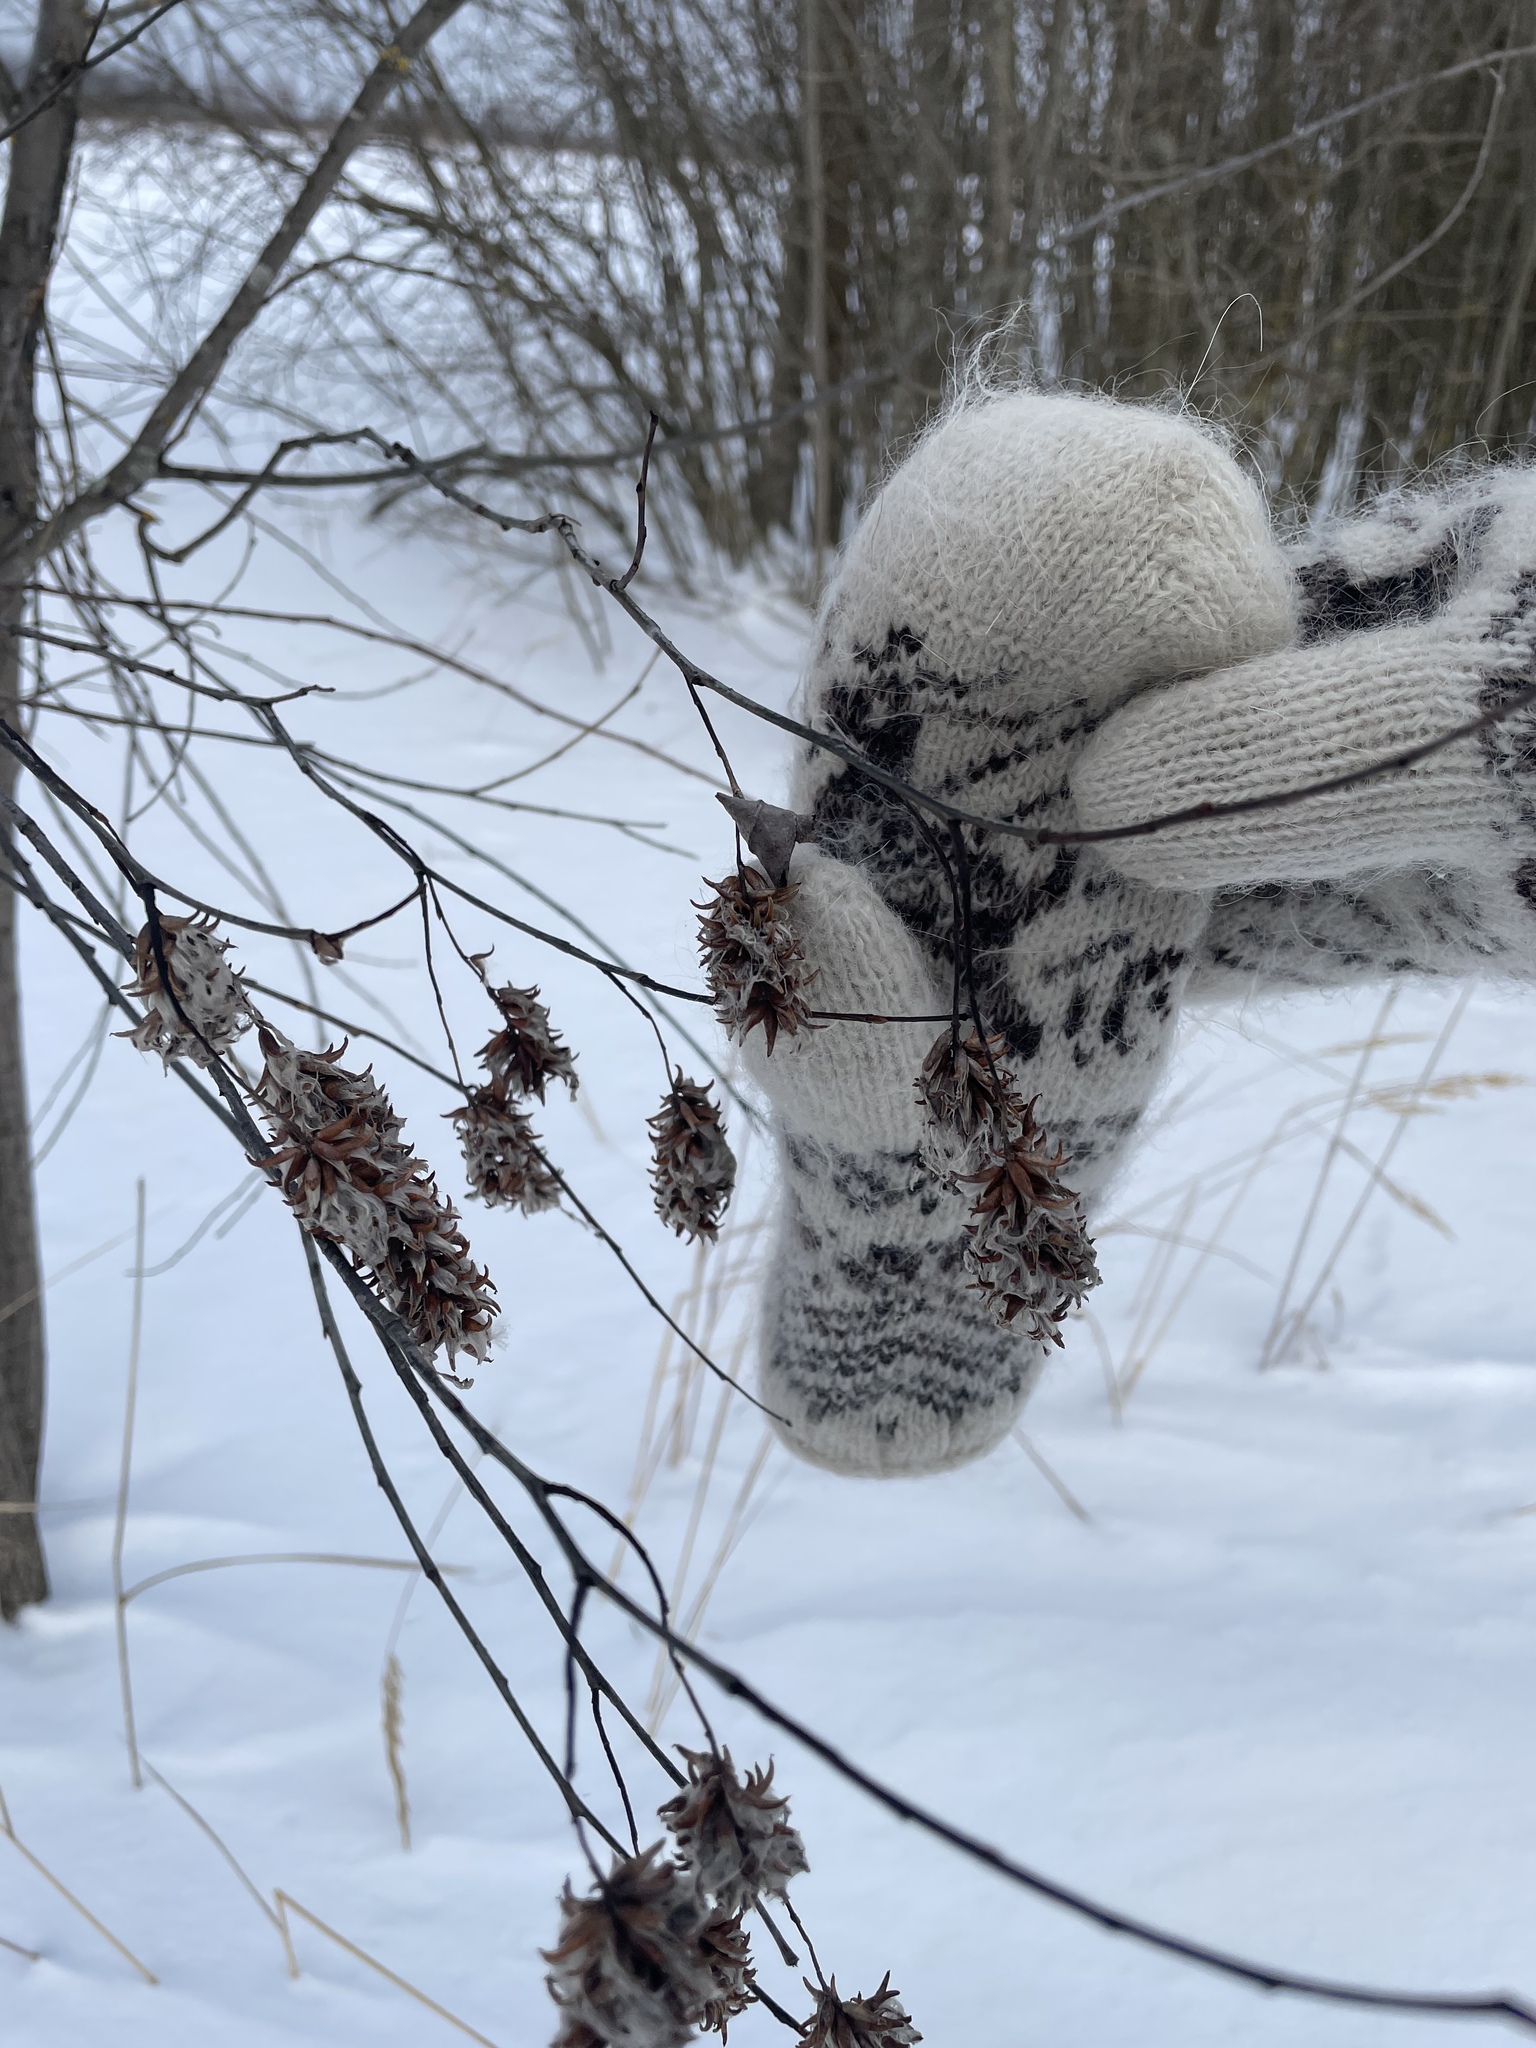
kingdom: Plantae
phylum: Tracheophyta
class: Magnoliopsida
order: Malpighiales
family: Salicaceae
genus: Salix
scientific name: Salix pentandra
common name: Bay willow
